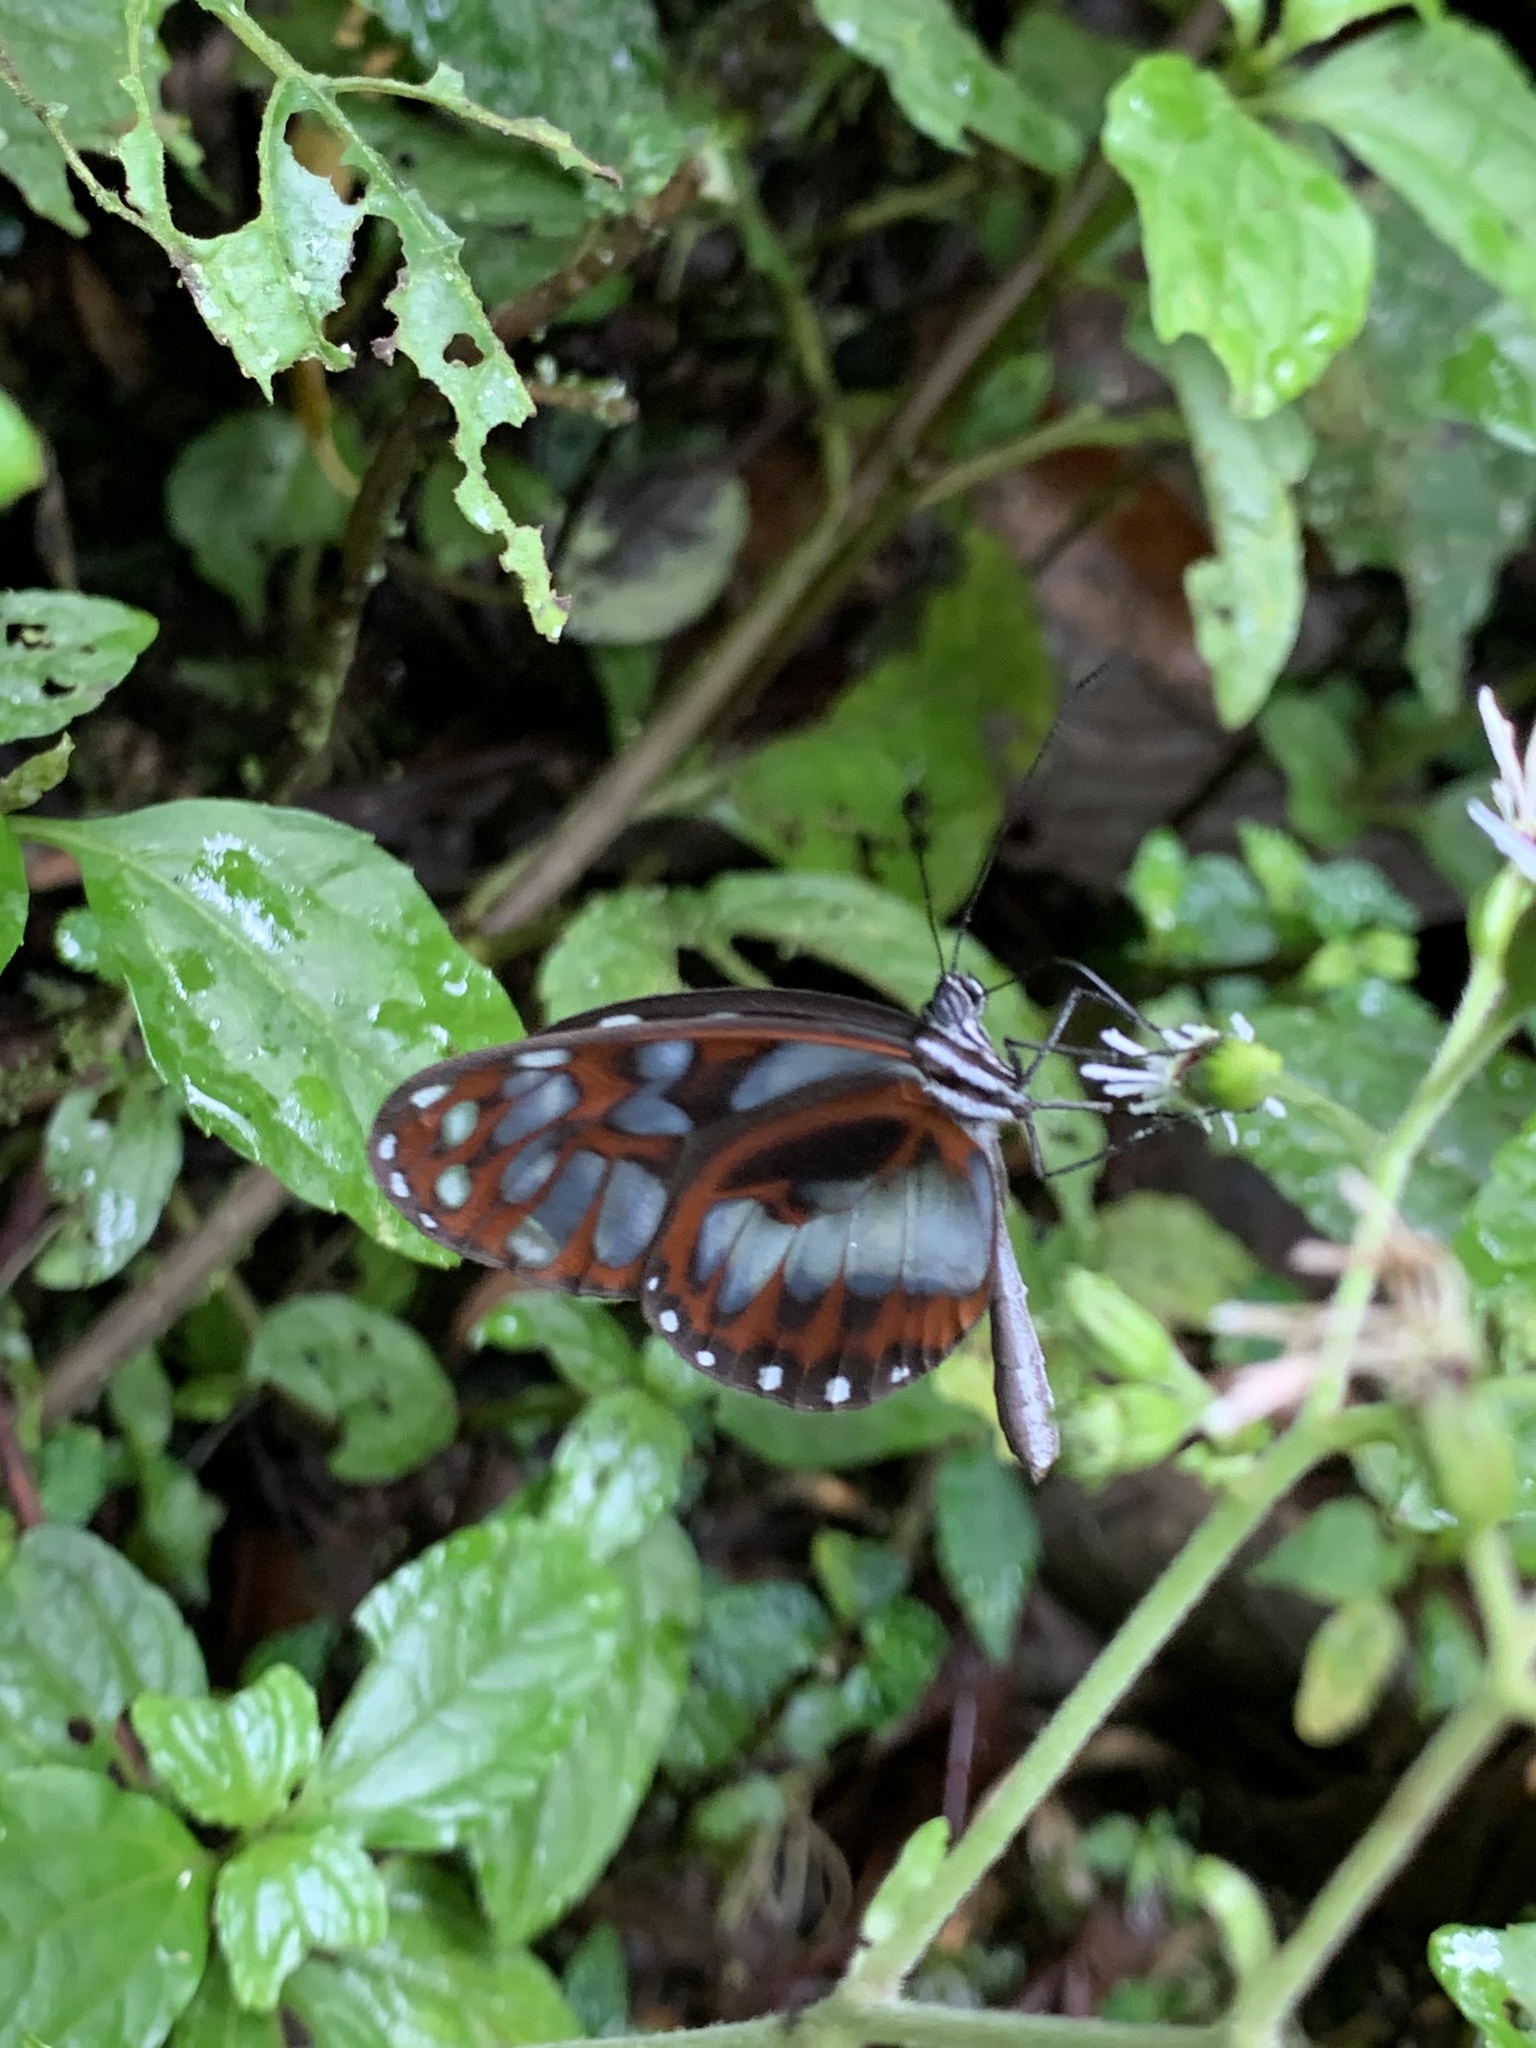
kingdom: Animalia
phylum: Arthropoda
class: Insecta
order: Lepidoptera
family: Nymphalidae
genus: Oleria
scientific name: Oleria cyrene
